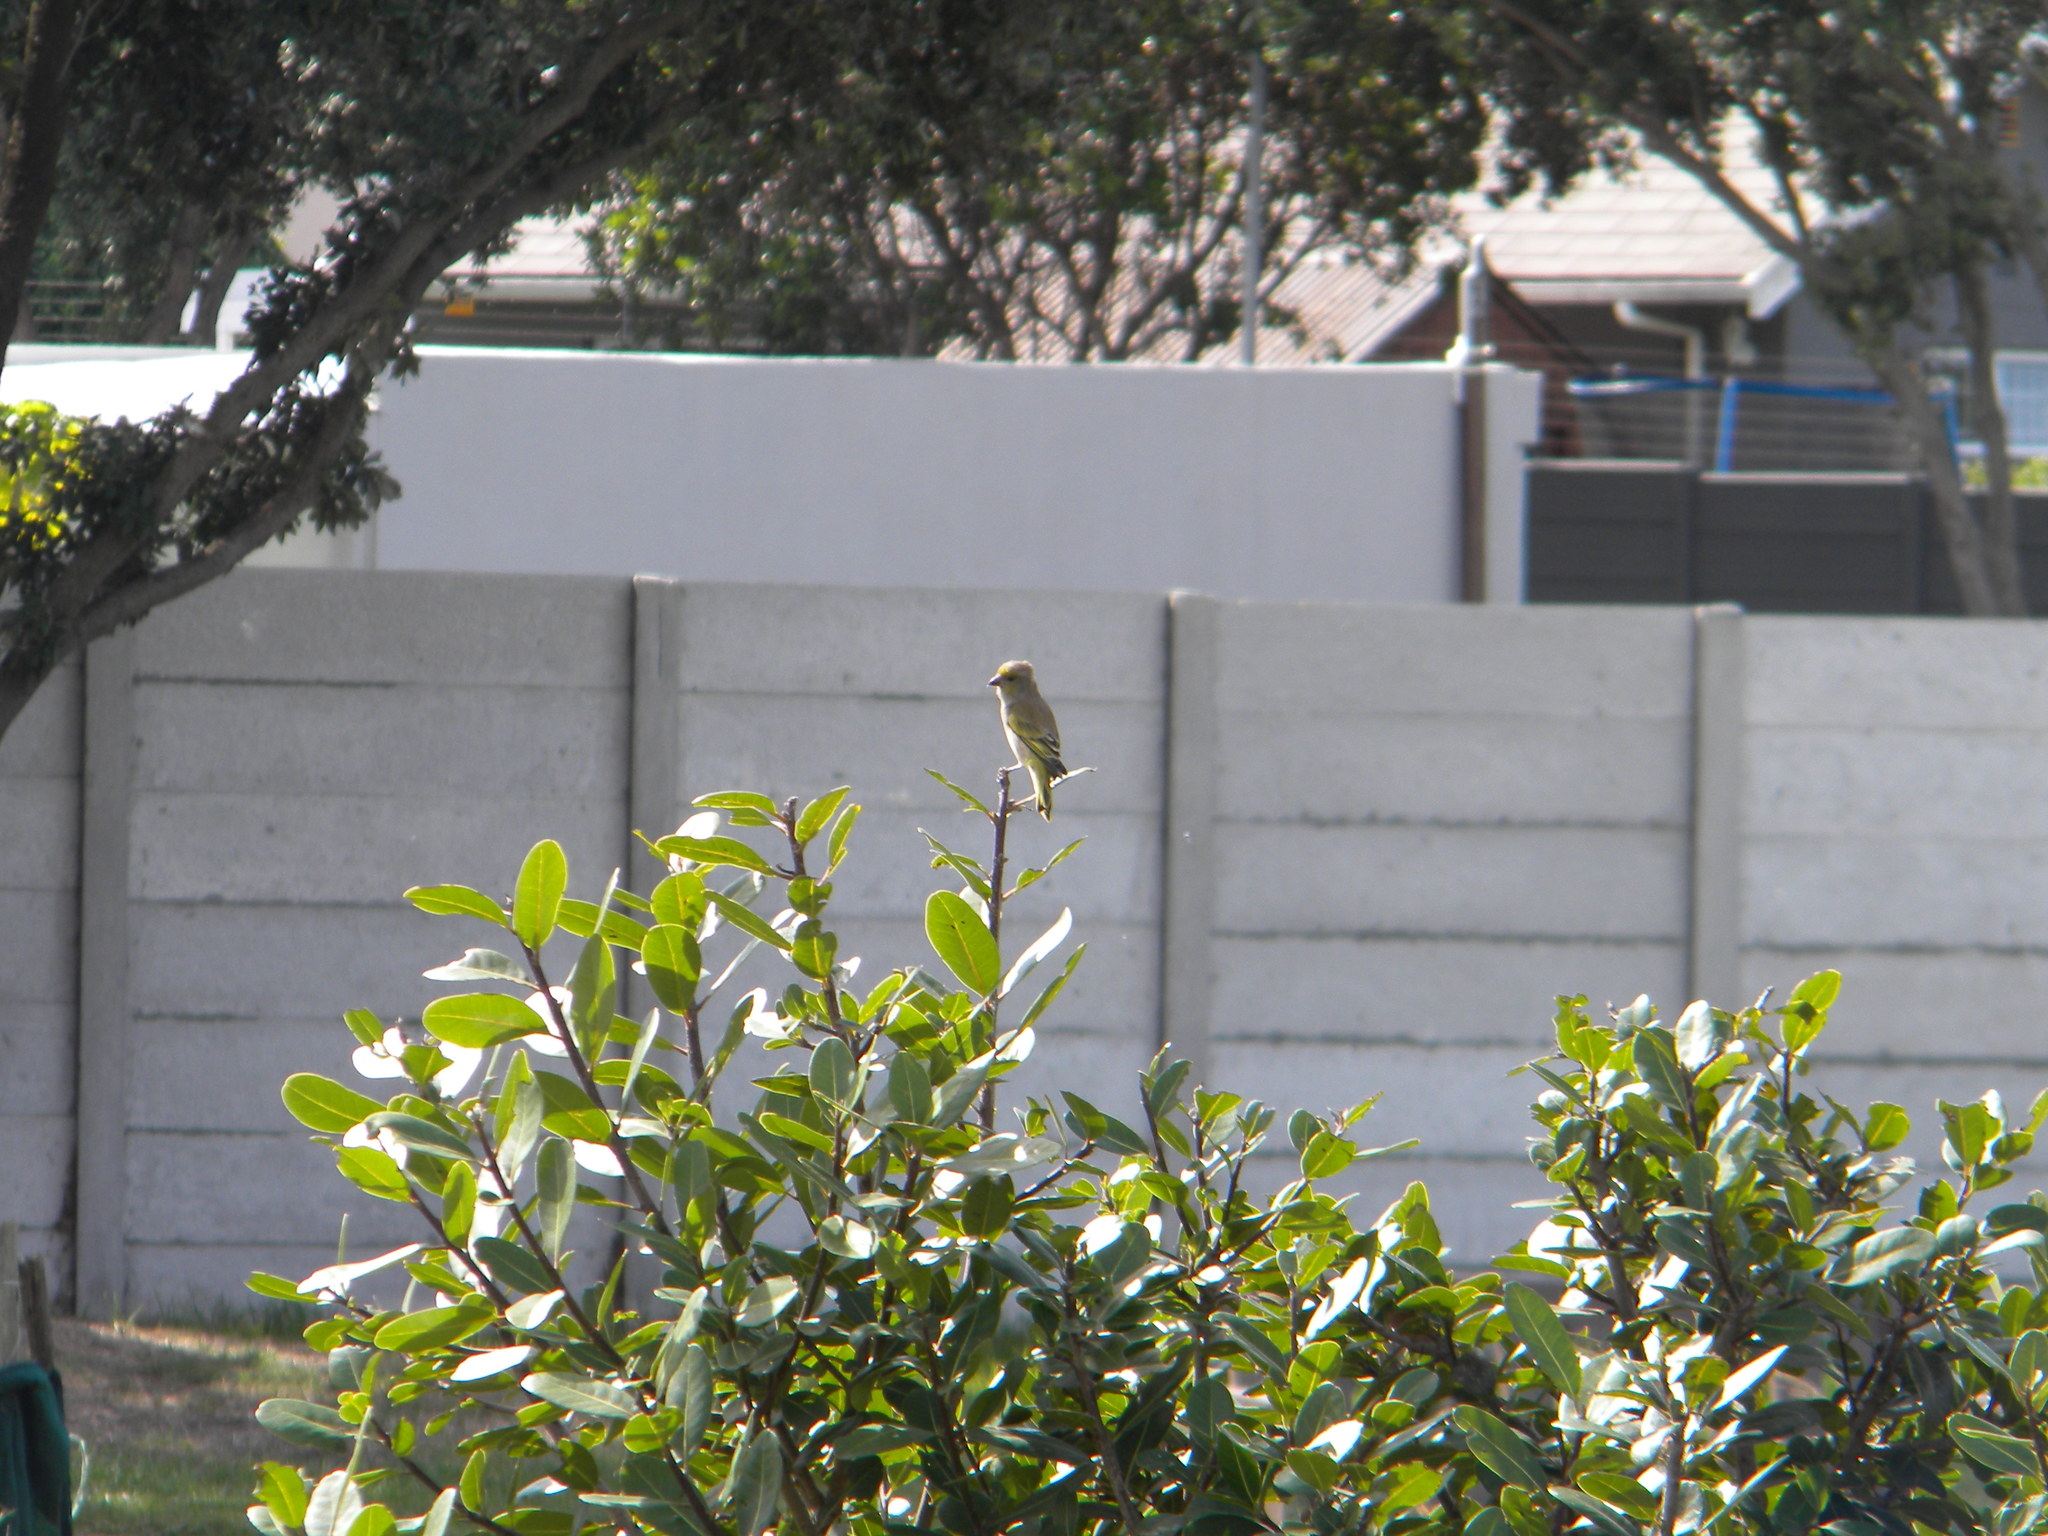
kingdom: Animalia
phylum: Chordata
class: Aves
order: Passeriformes
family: Fringillidae
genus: Serinus
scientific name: Serinus canicollis
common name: Cape canary
